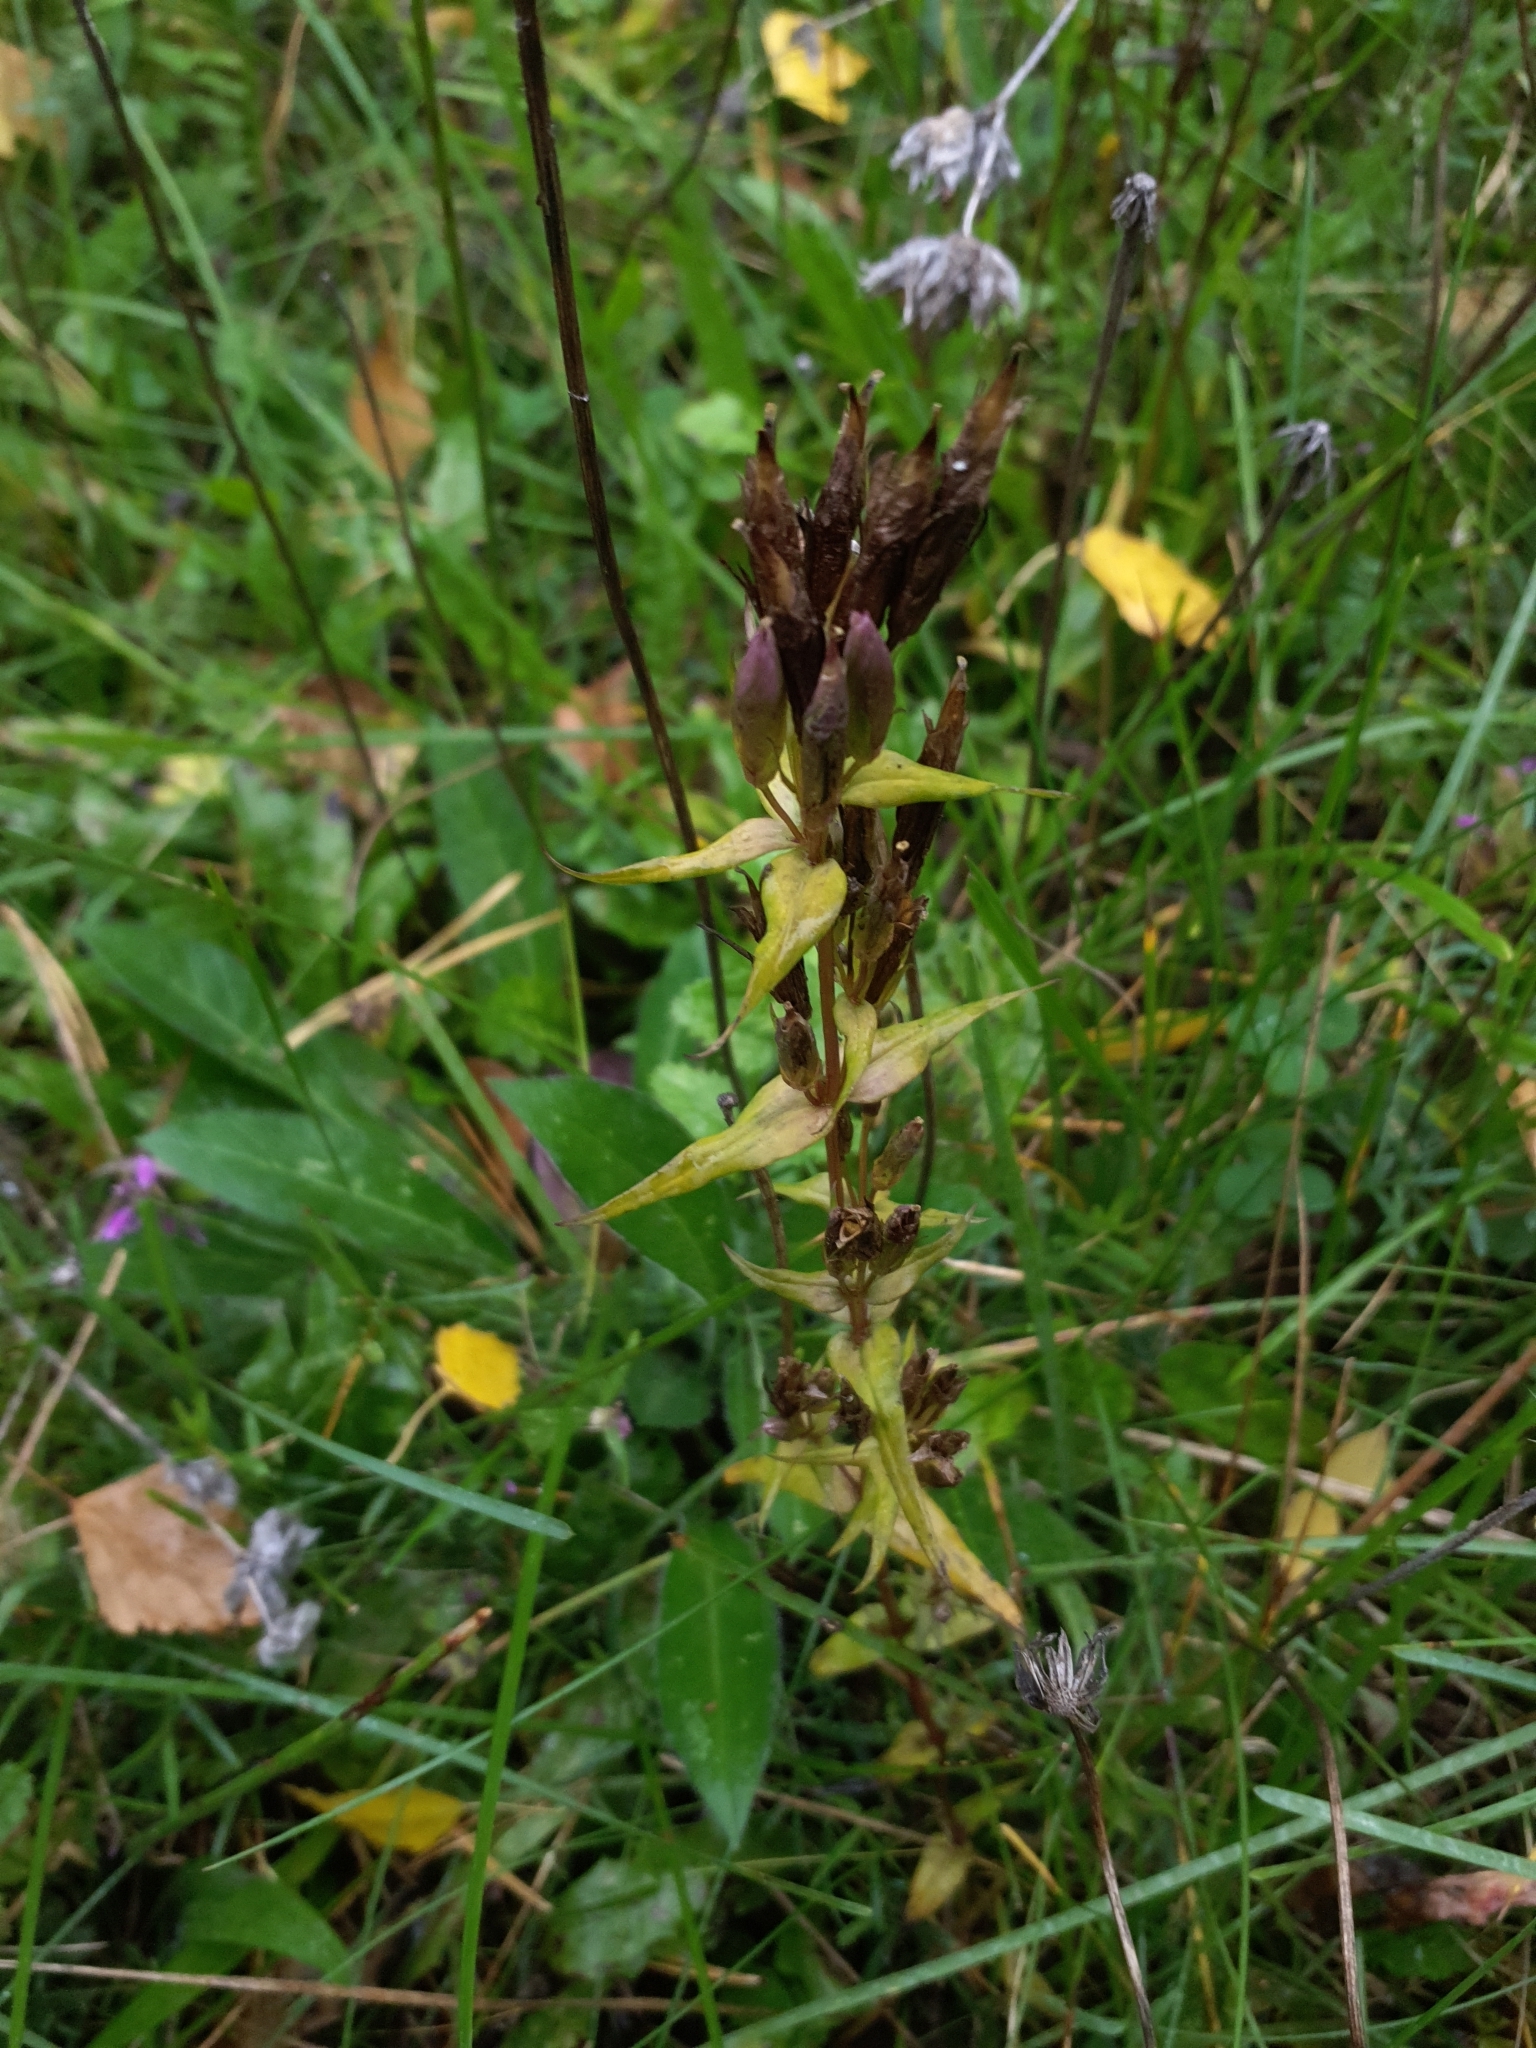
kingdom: Plantae
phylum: Tracheophyta
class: Magnoliopsida
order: Gentianales
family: Gentianaceae
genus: Gentianella
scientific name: Gentianella amarella
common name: Autumn gentian
